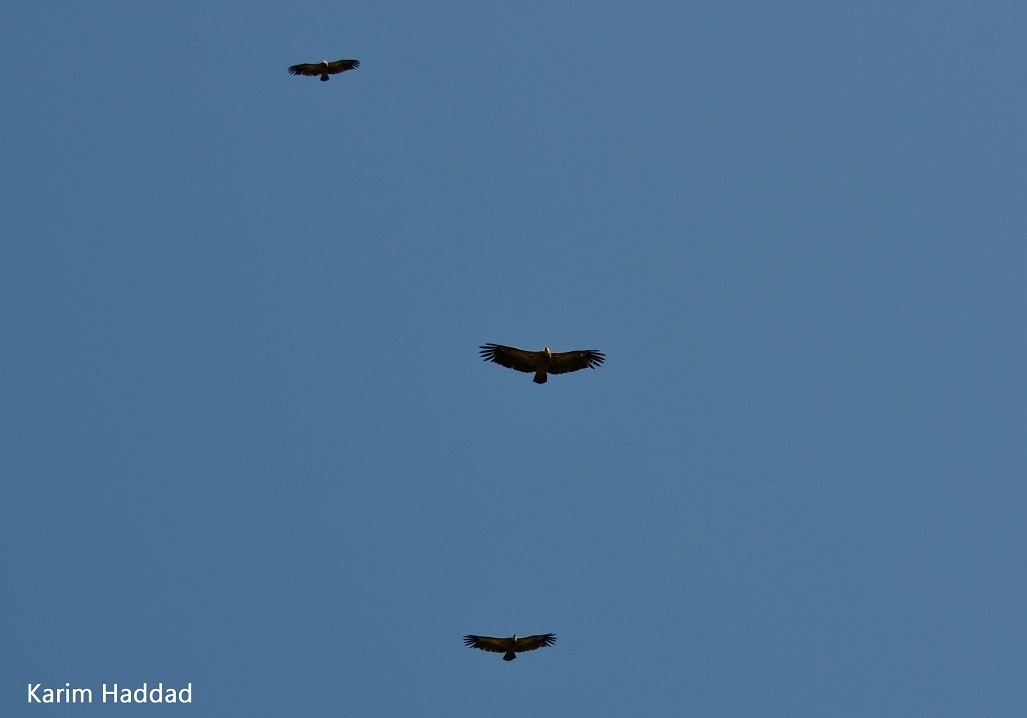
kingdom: Animalia
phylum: Chordata
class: Aves
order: Accipitriformes
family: Accipitridae
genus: Gyps
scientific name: Gyps fulvus
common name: Griffon vulture
